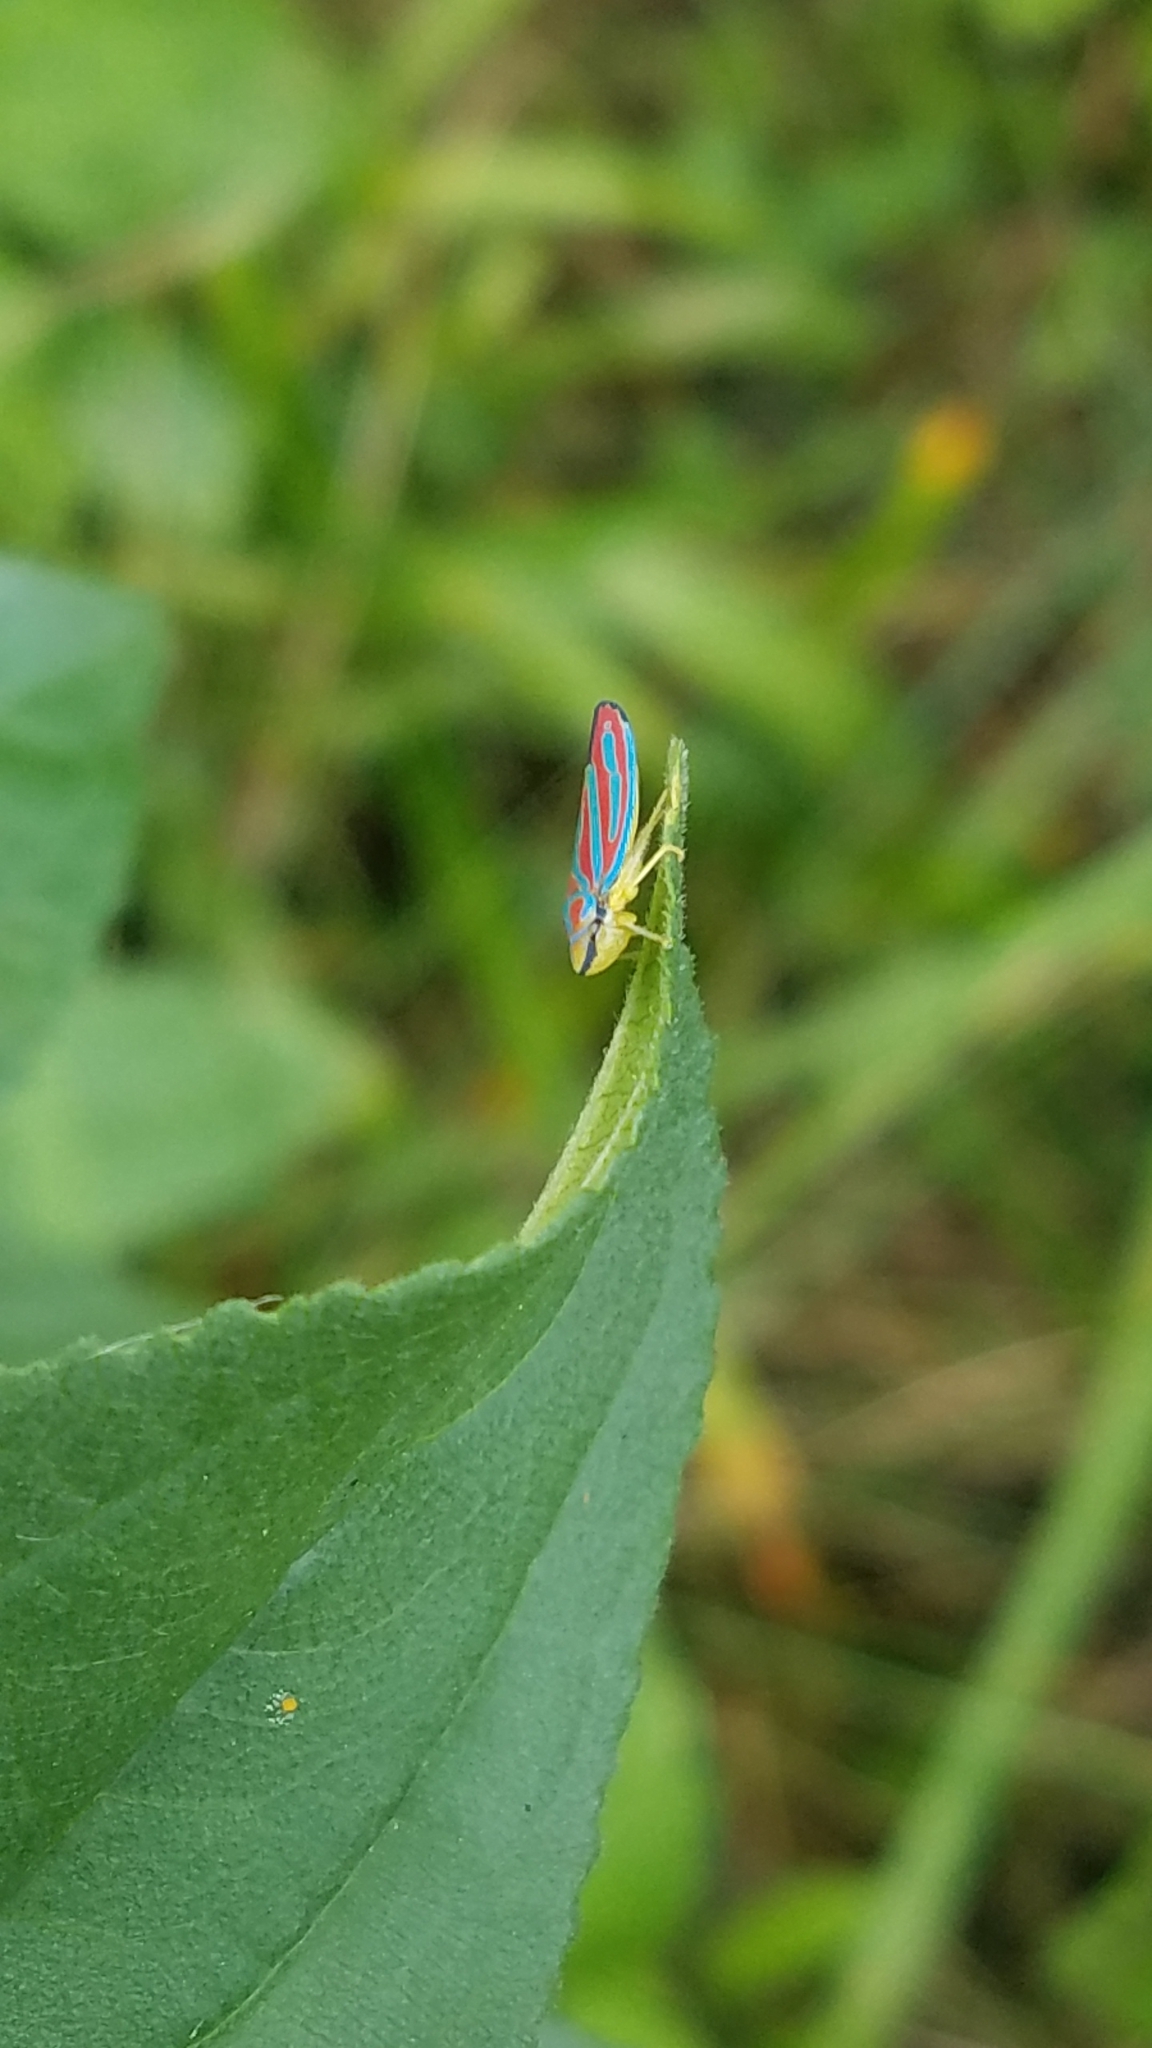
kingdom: Animalia
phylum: Arthropoda
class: Insecta
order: Hemiptera
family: Cicadellidae
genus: Graphocephala
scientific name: Graphocephala coccinea
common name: Candy-striped leafhopper
